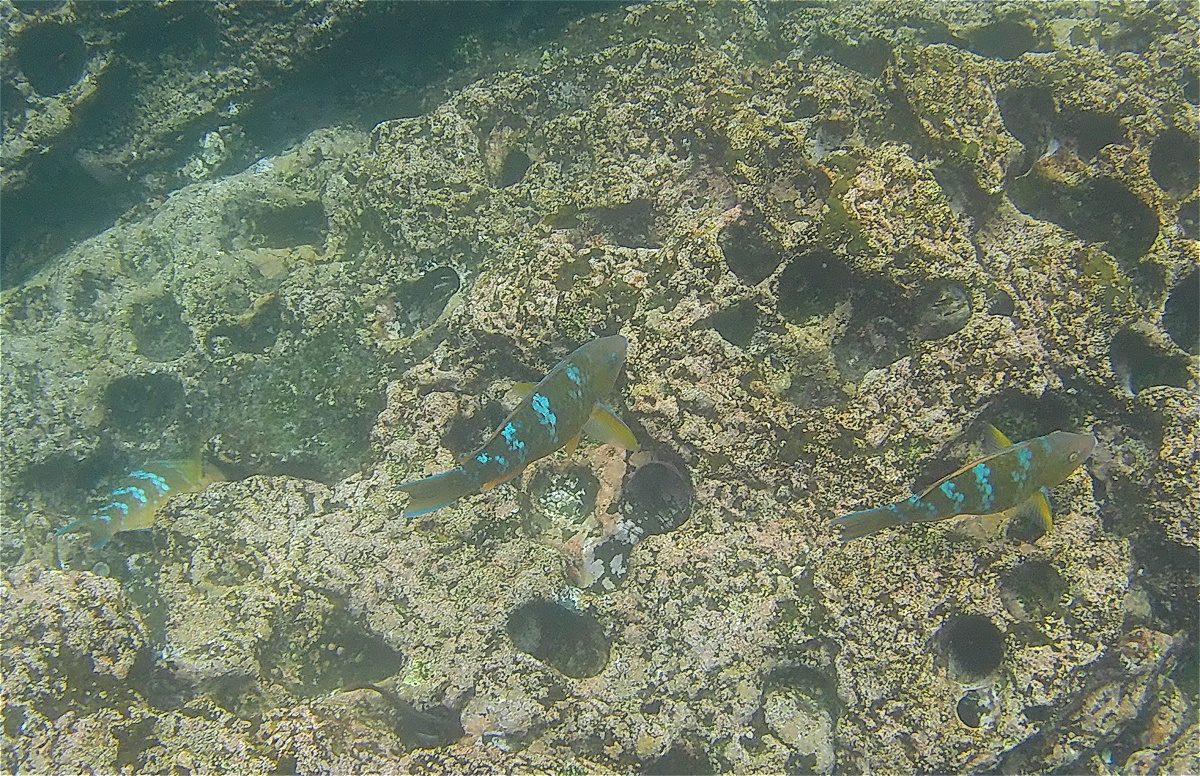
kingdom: Animalia
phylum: Chordata
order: Perciformes
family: Scaridae
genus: Scarus
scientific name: Scarus ghobban
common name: Blue-barred parrotfish
